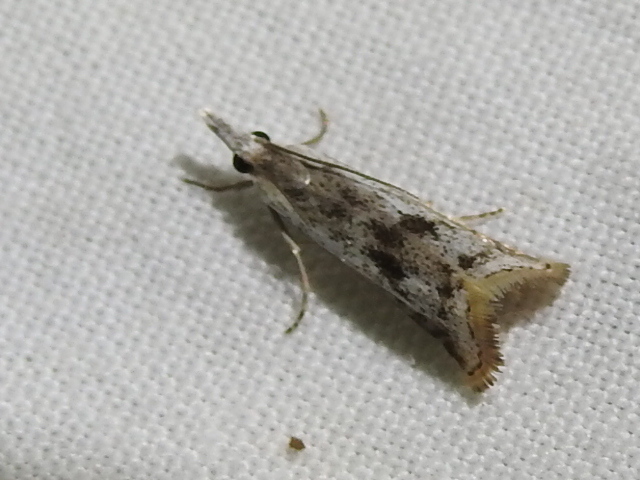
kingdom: Animalia
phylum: Arthropoda
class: Insecta
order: Lepidoptera
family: Crambidae
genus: Microcrambus
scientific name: Microcrambus croesus
